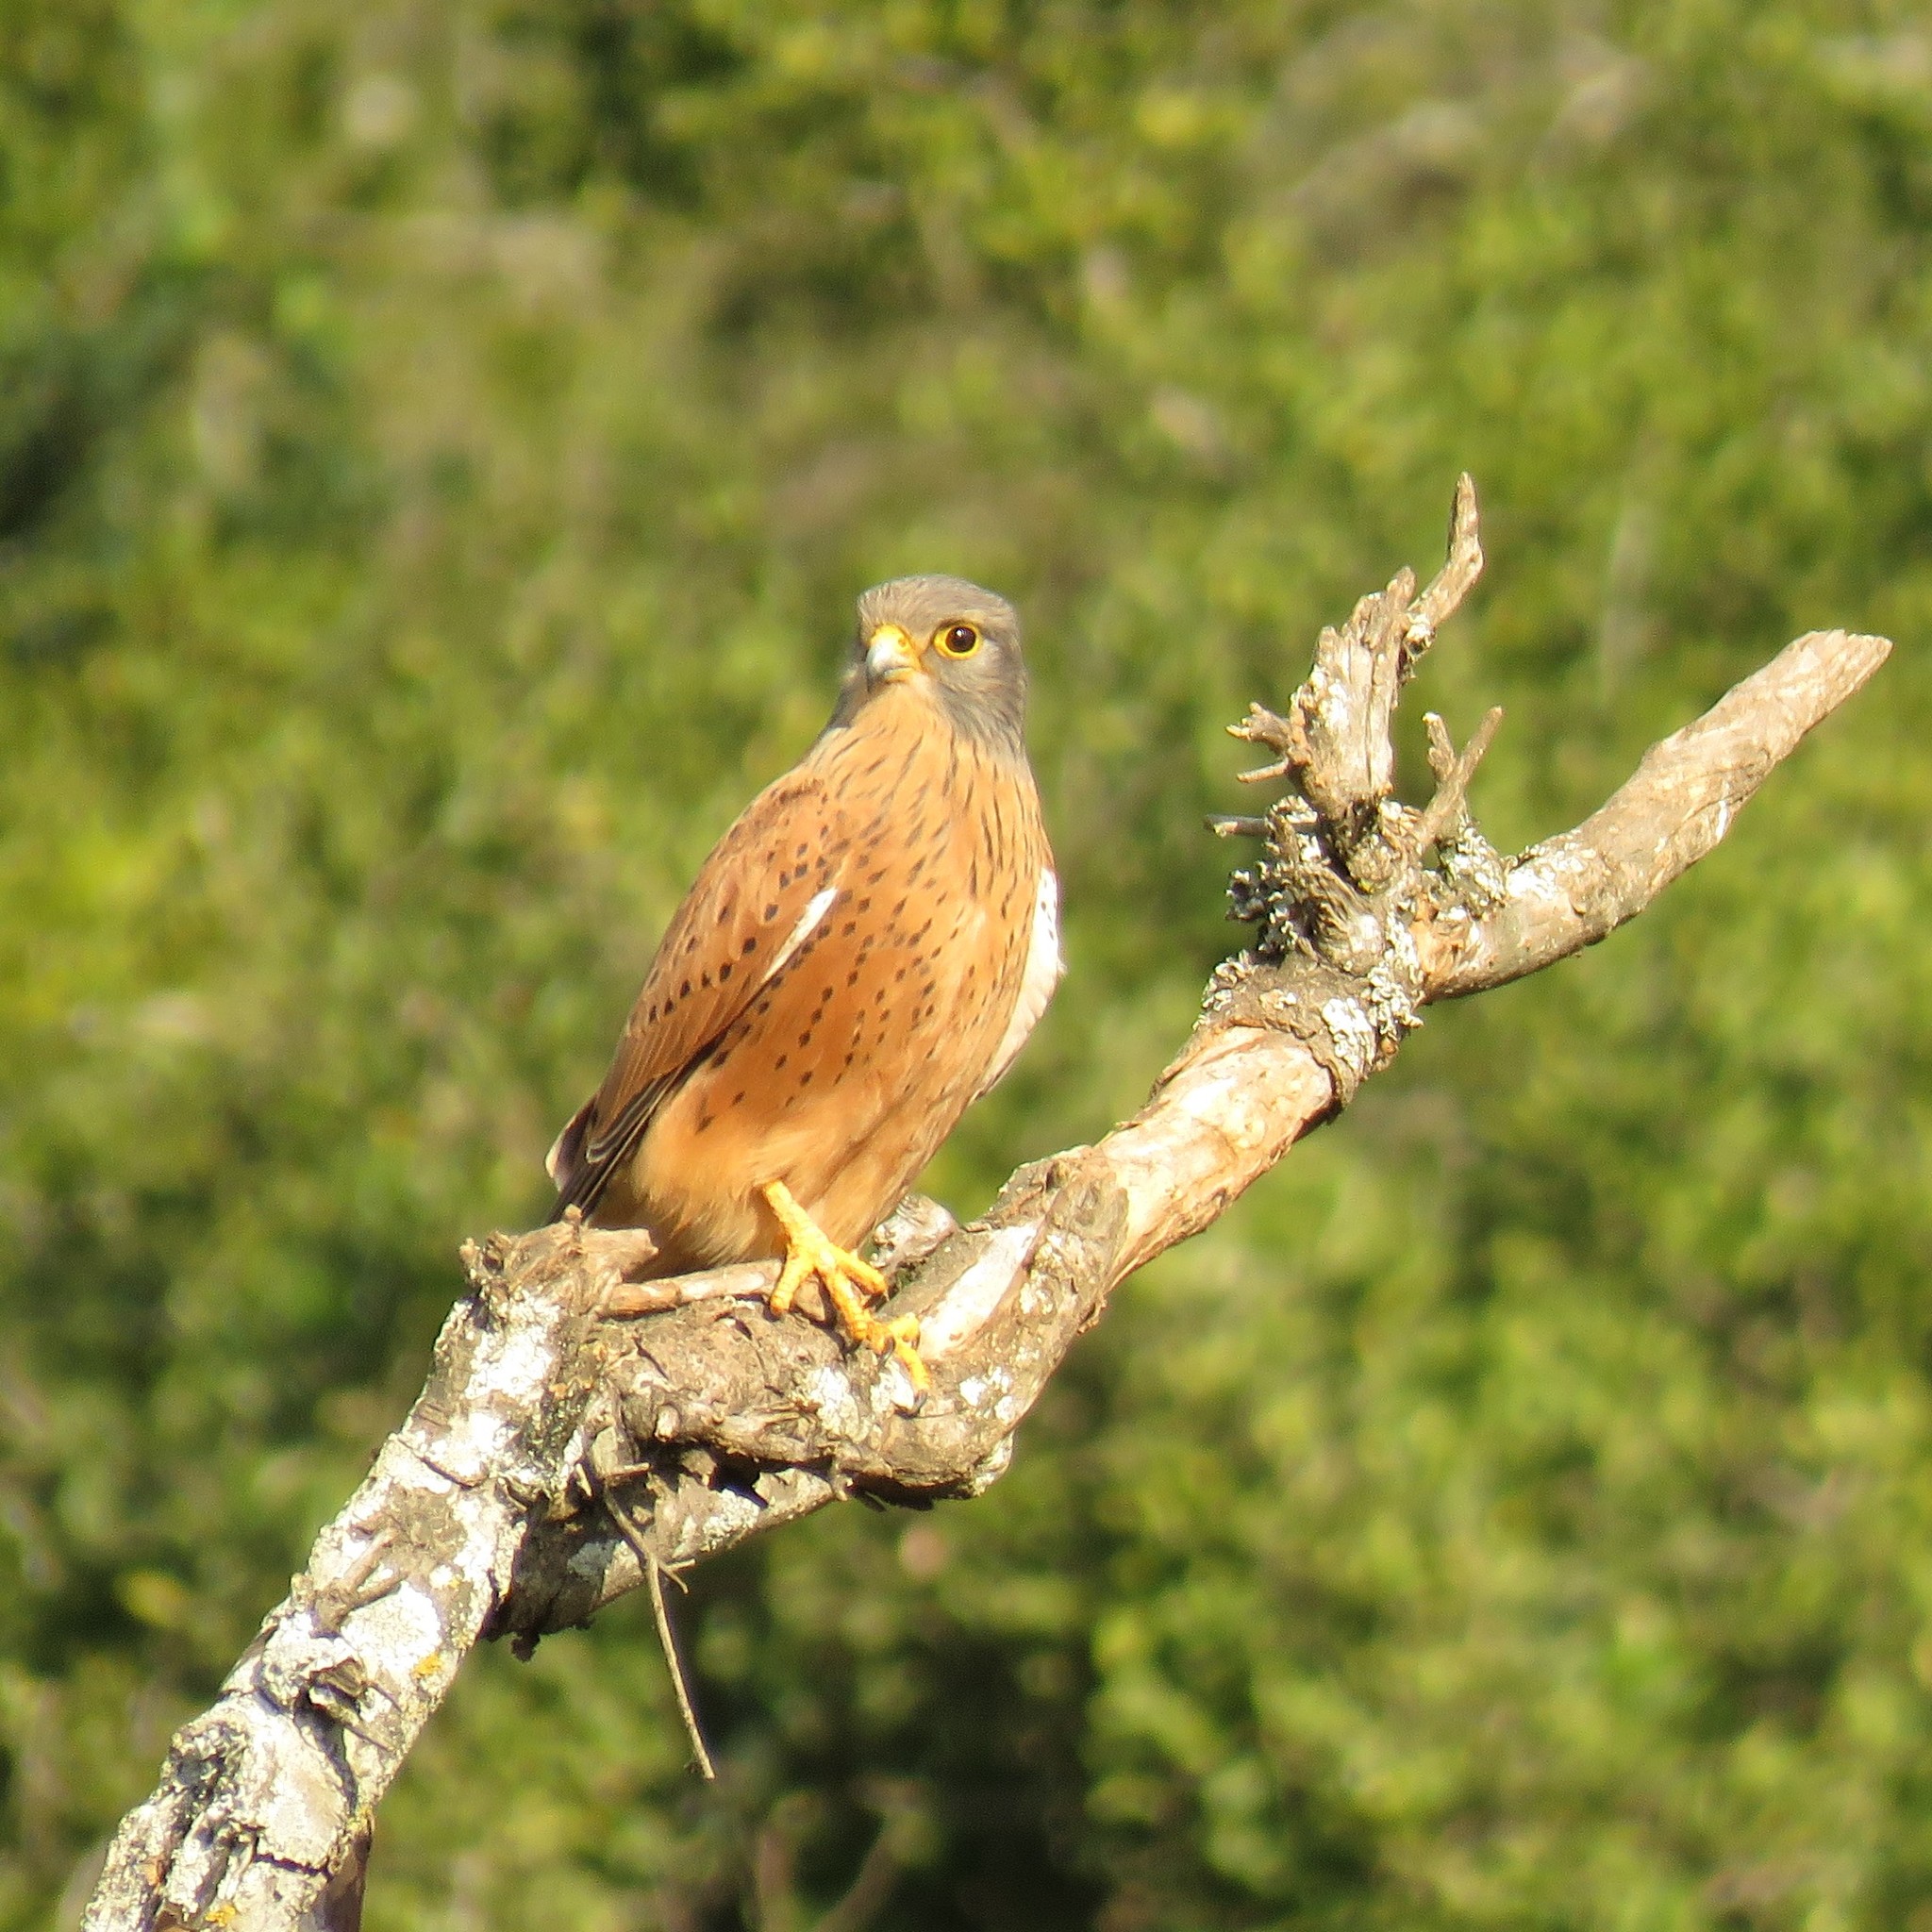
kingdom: Animalia
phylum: Chordata
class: Aves
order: Falconiformes
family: Falconidae
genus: Falco
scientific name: Falco rupicolus
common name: Rock kestrel
